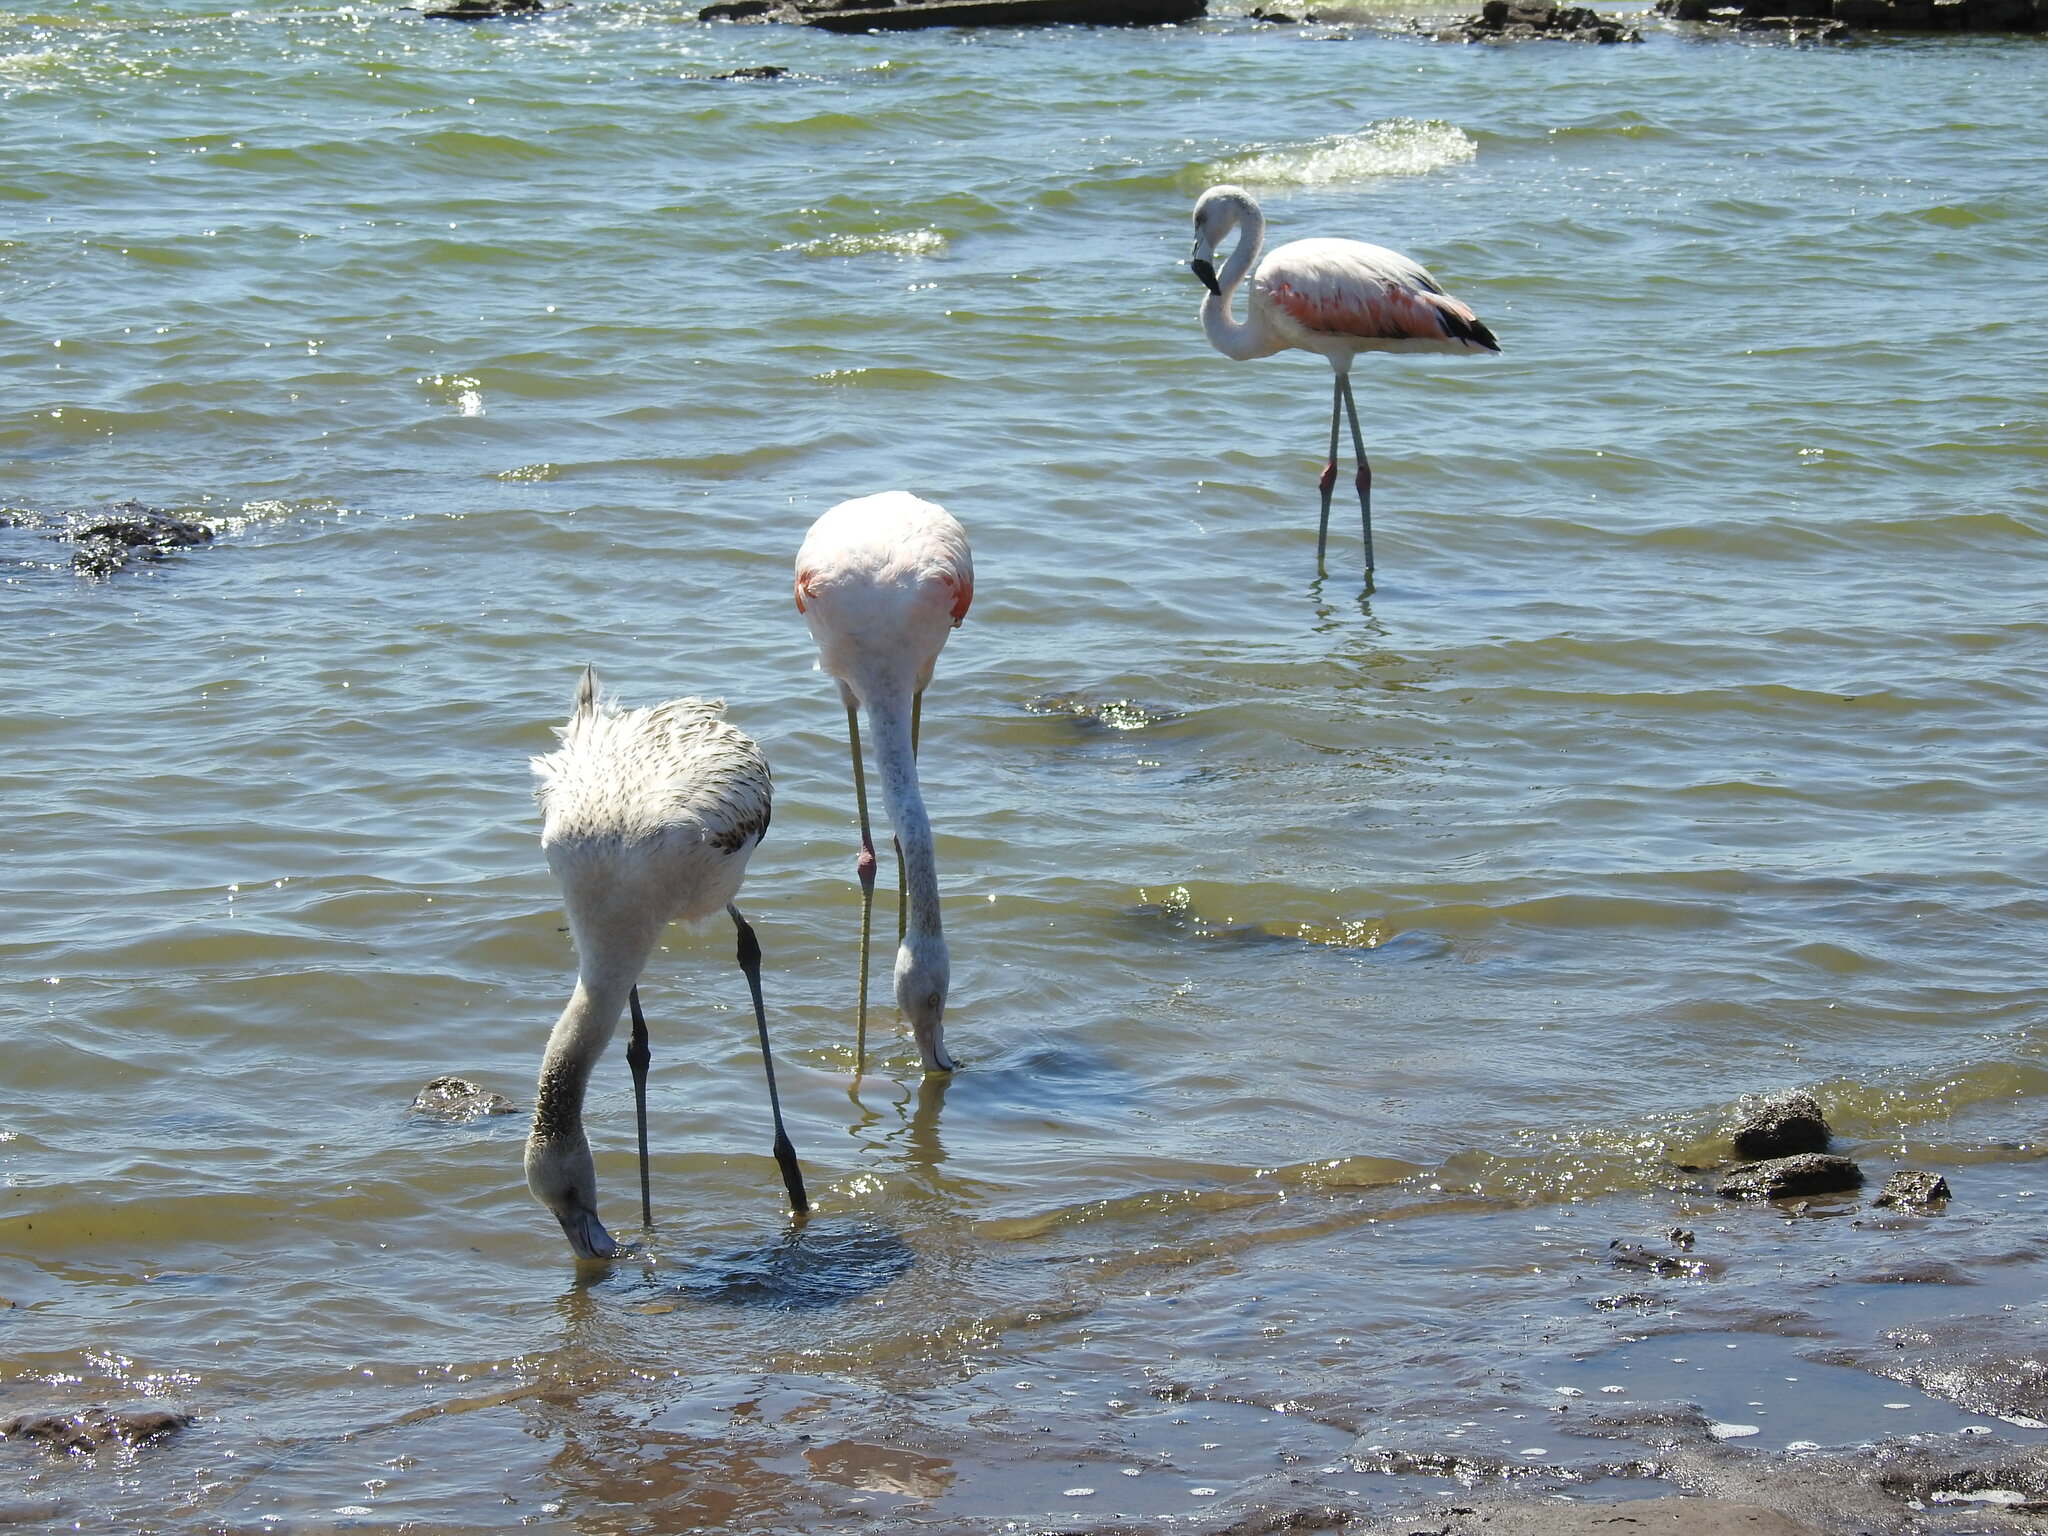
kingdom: Animalia
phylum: Chordata
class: Aves
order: Phoenicopteriformes
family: Phoenicopteridae
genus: Phoenicopterus
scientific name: Phoenicopterus chilensis
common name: Chilean flamingo
